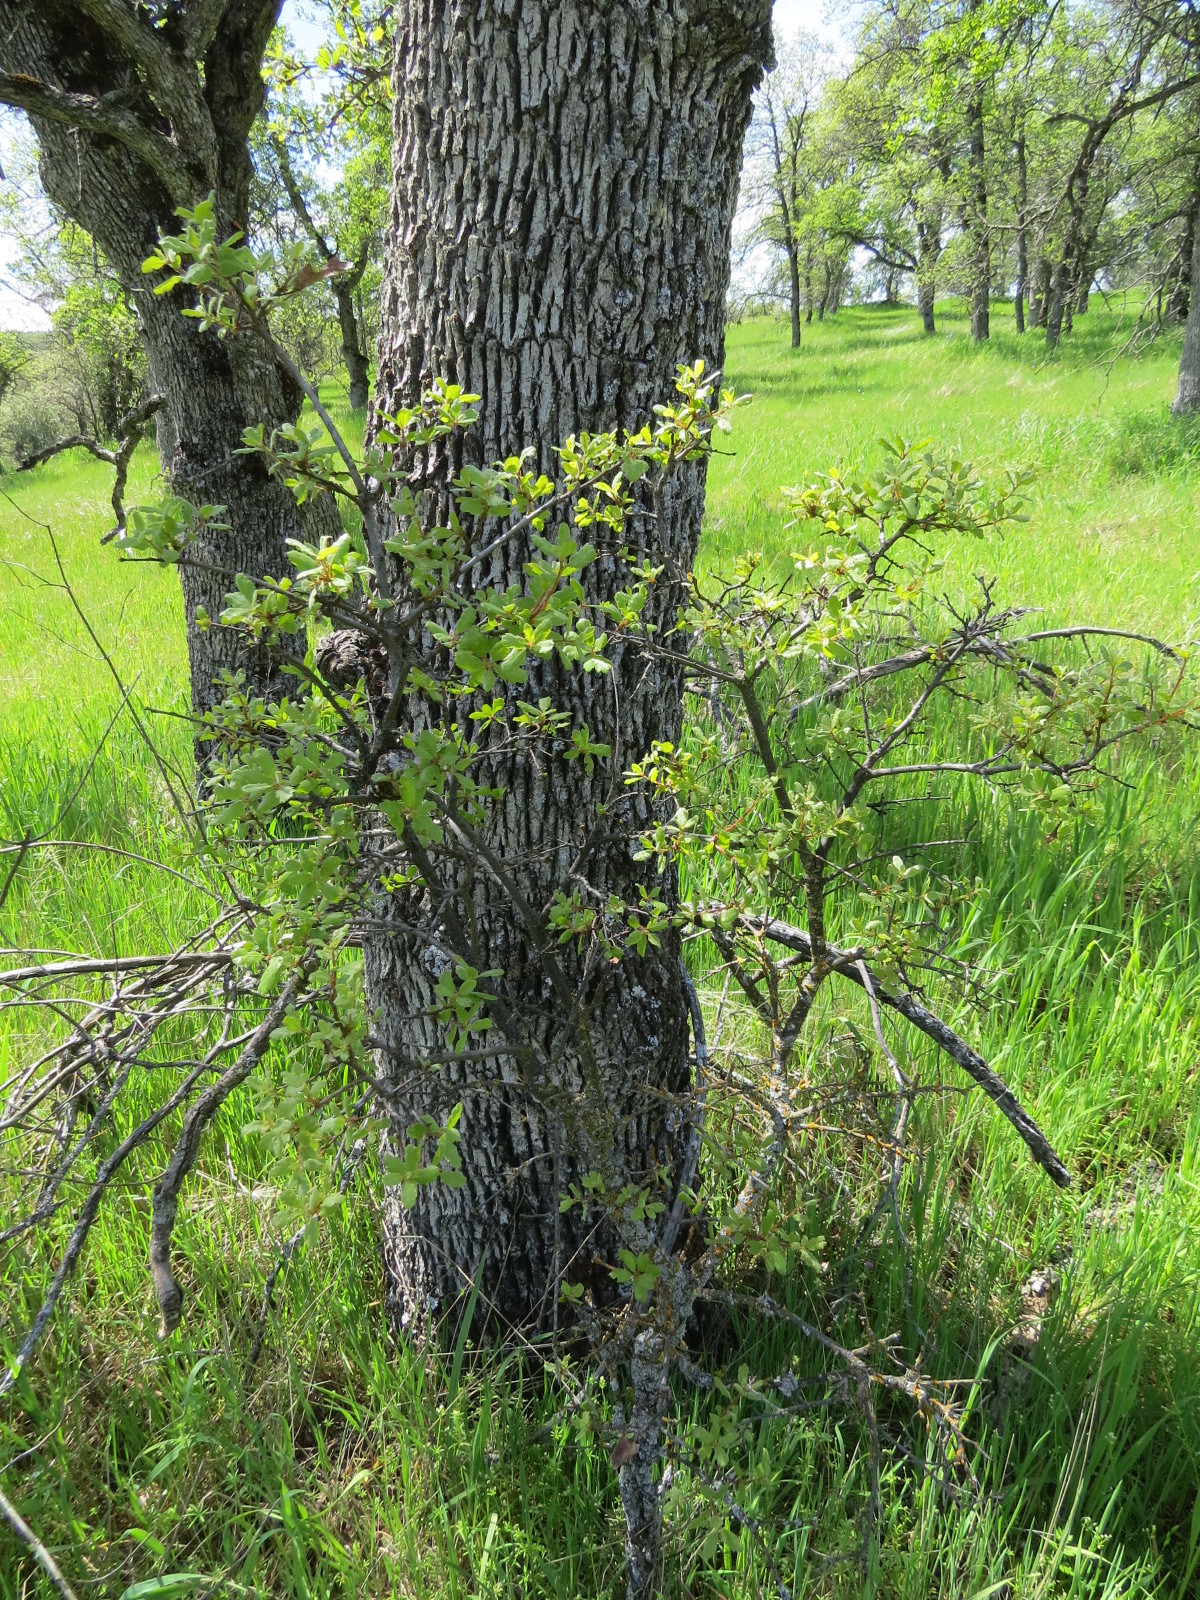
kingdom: Plantae
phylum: Tracheophyta
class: Magnoliopsida
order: Fagales
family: Fagaceae
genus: Quercus
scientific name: Quercus douglasii
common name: Blue oak
